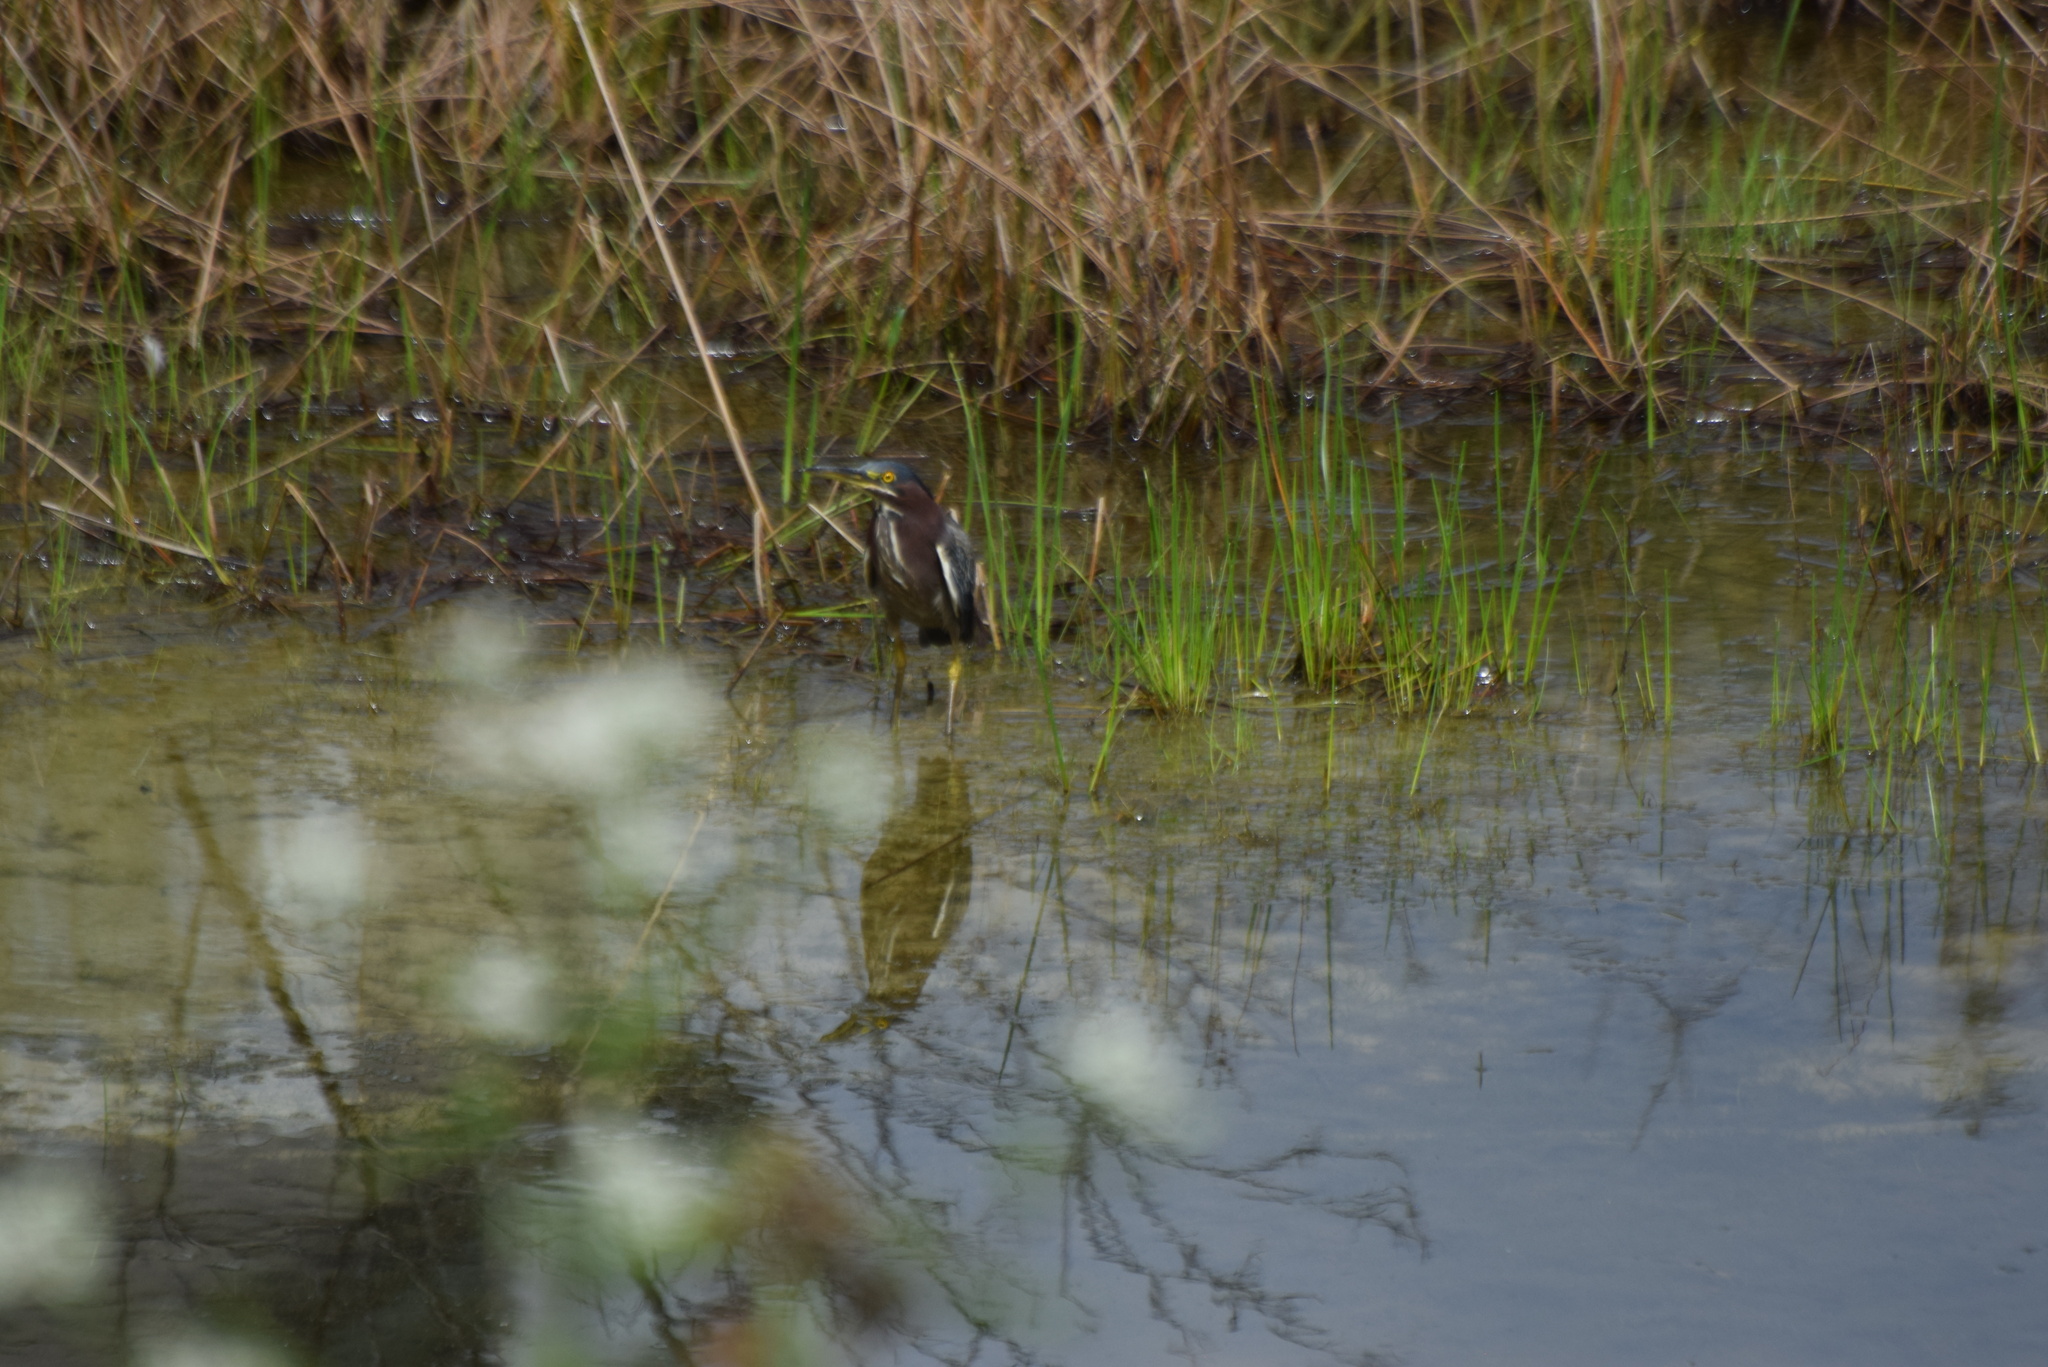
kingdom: Animalia
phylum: Chordata
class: Aves
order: Pelecaniformes
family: Ardeidae
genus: Butorides
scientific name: Butorides virescens
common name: Green heron
